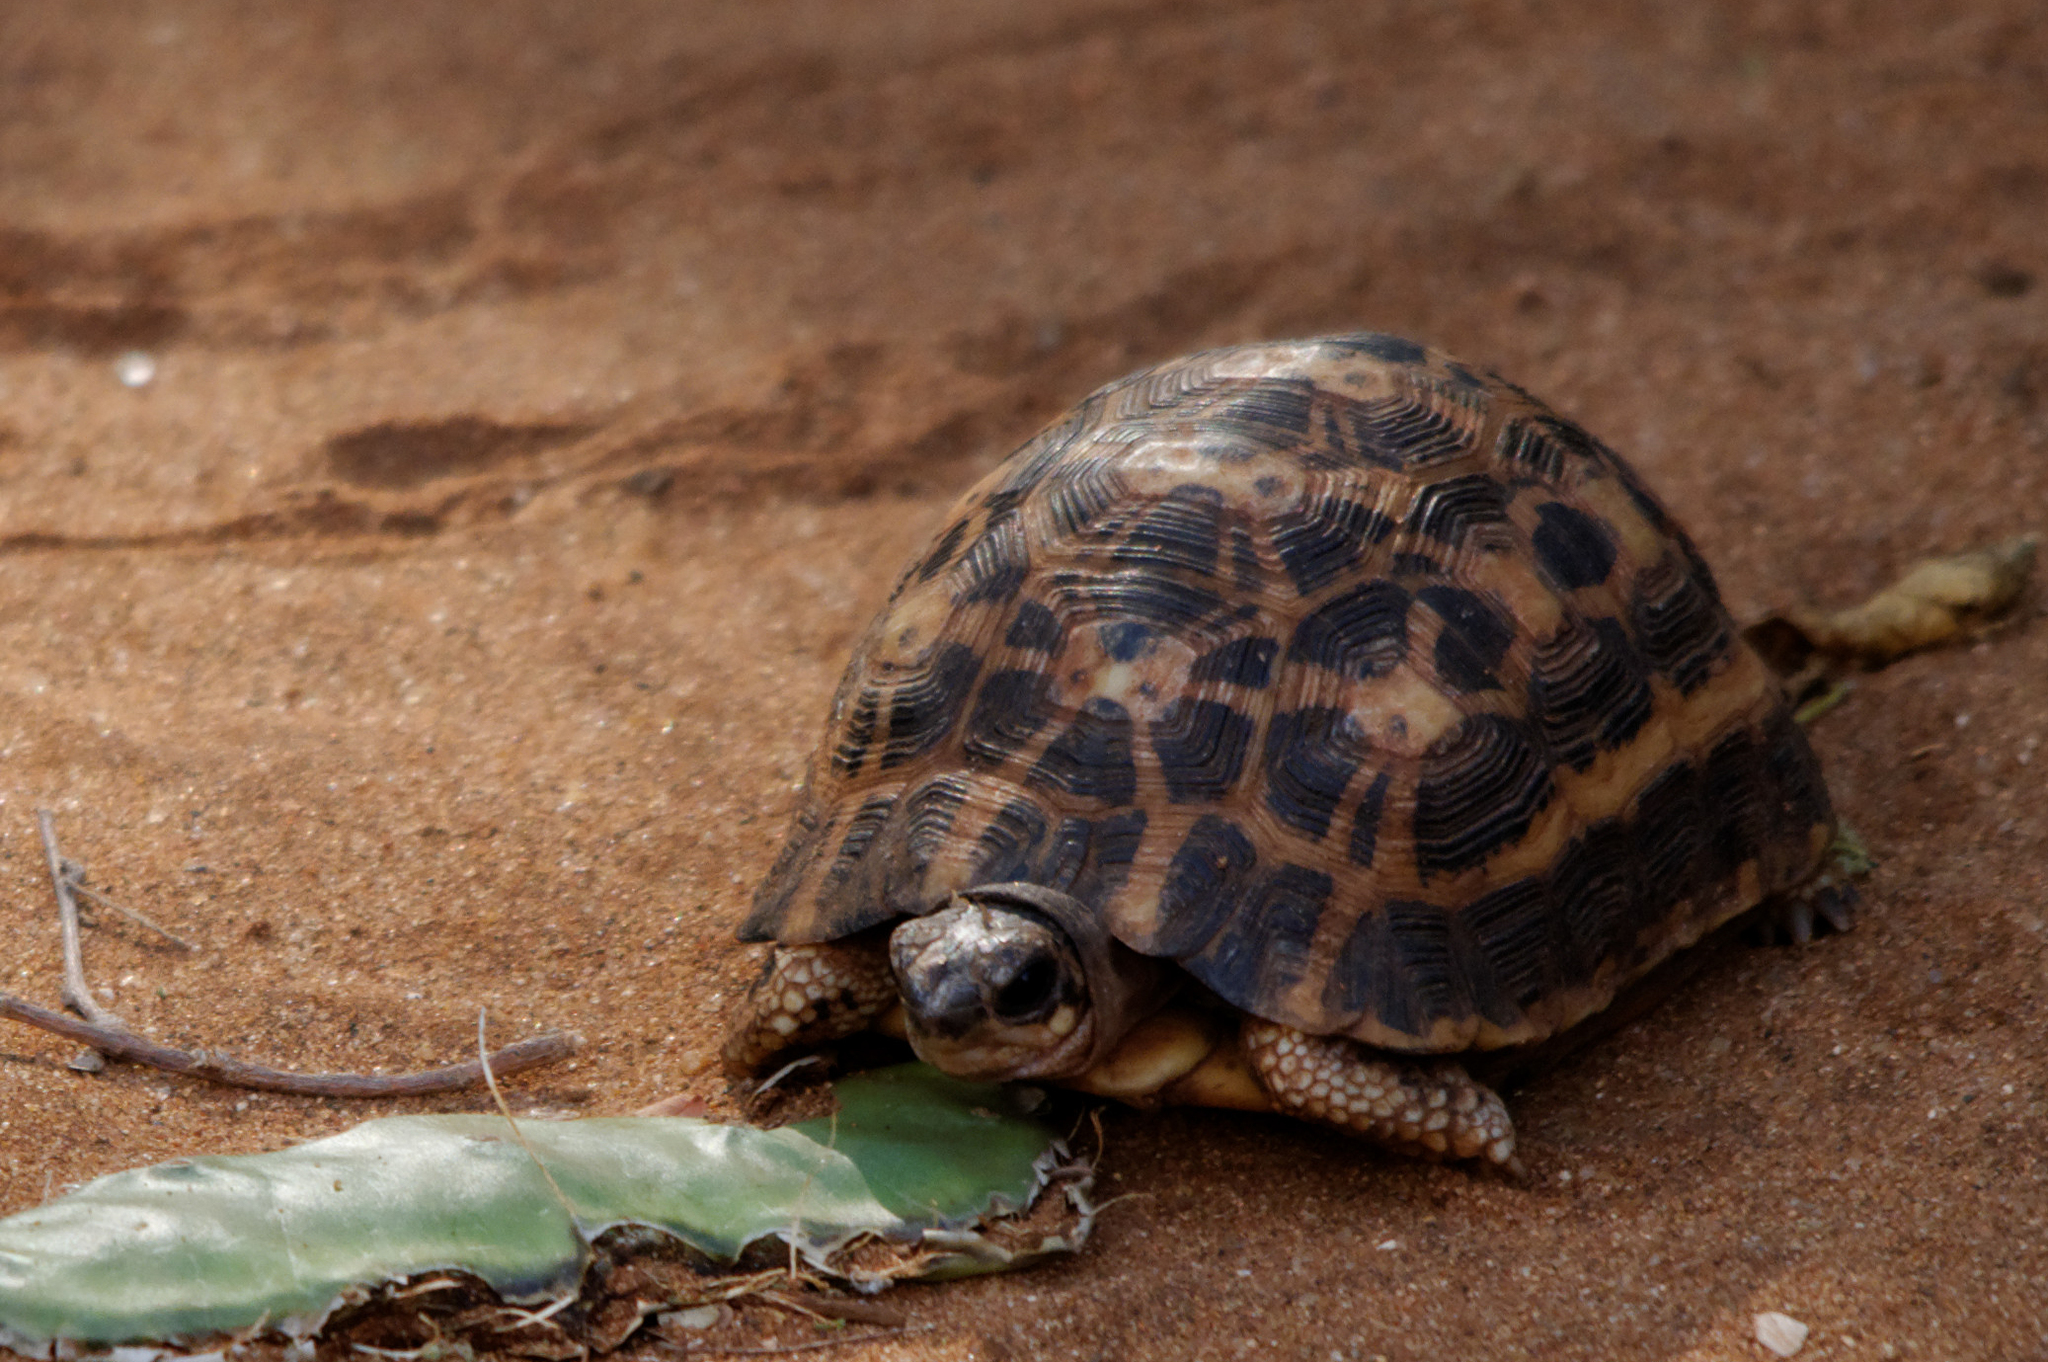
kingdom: Animalia
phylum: Chordata
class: Testudines
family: Testudinidae
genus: Pyxis
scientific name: Pyxis arachnoides
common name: Common spider tortoise
